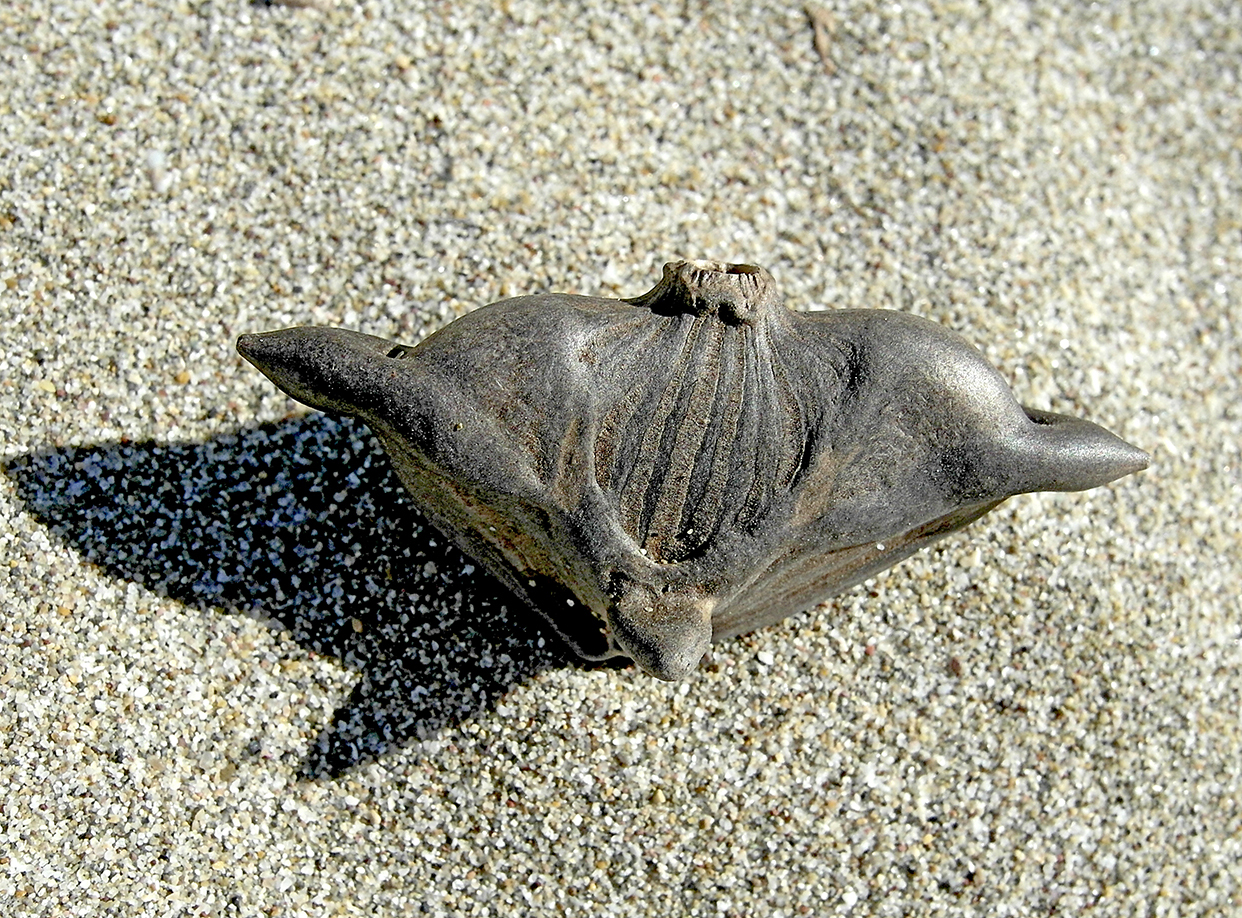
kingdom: Plantae
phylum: Tracheophyta
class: Magnoliopsida
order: Myrtales
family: Lythraceae
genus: Trapa
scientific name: Trapa natans
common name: Water chestnut
